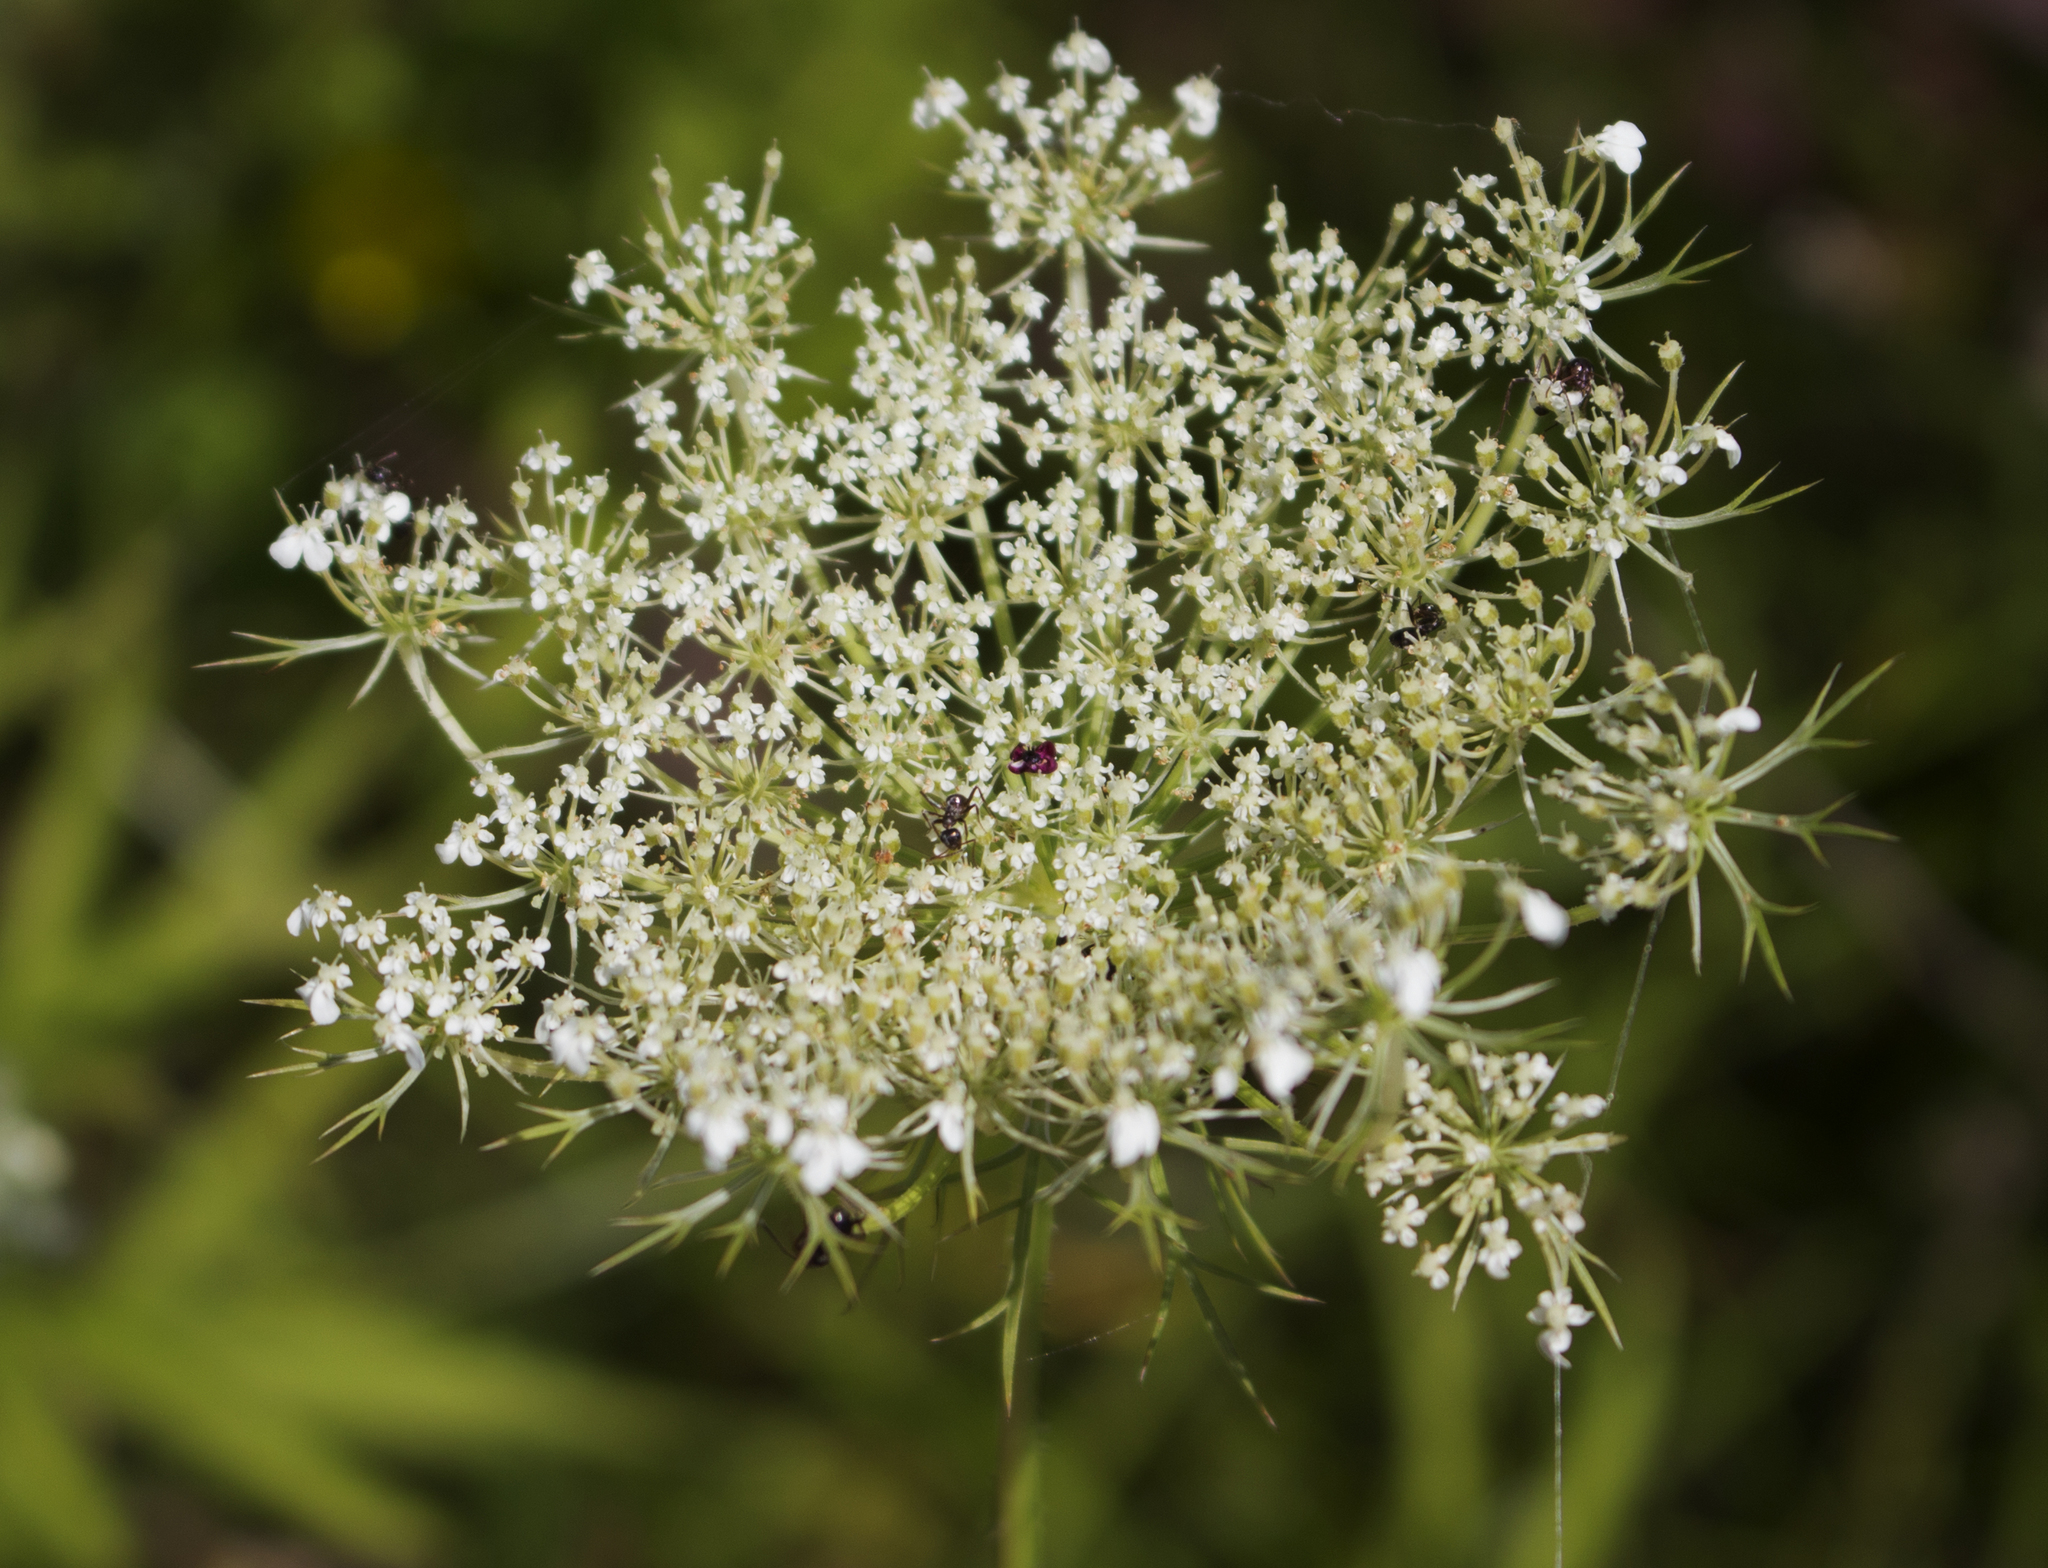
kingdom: Plantae
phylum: Tracheophyta
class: Magnoliopsida
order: Apiales
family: Apiaceae
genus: Daucus
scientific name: Daucus carota
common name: Wild carrot
